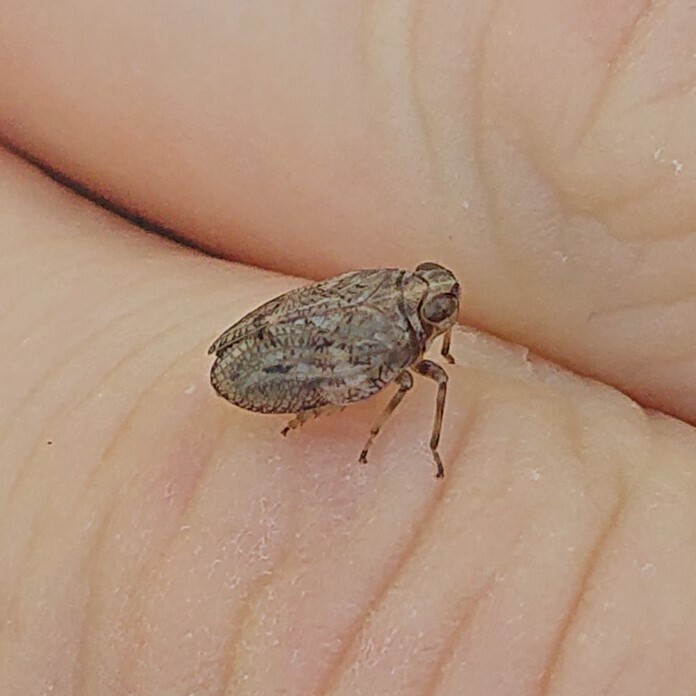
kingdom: Animalia
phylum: Arthropoda
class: Insecta
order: Hemiptera
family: Issidae
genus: Issus
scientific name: Issus coleoptratus
